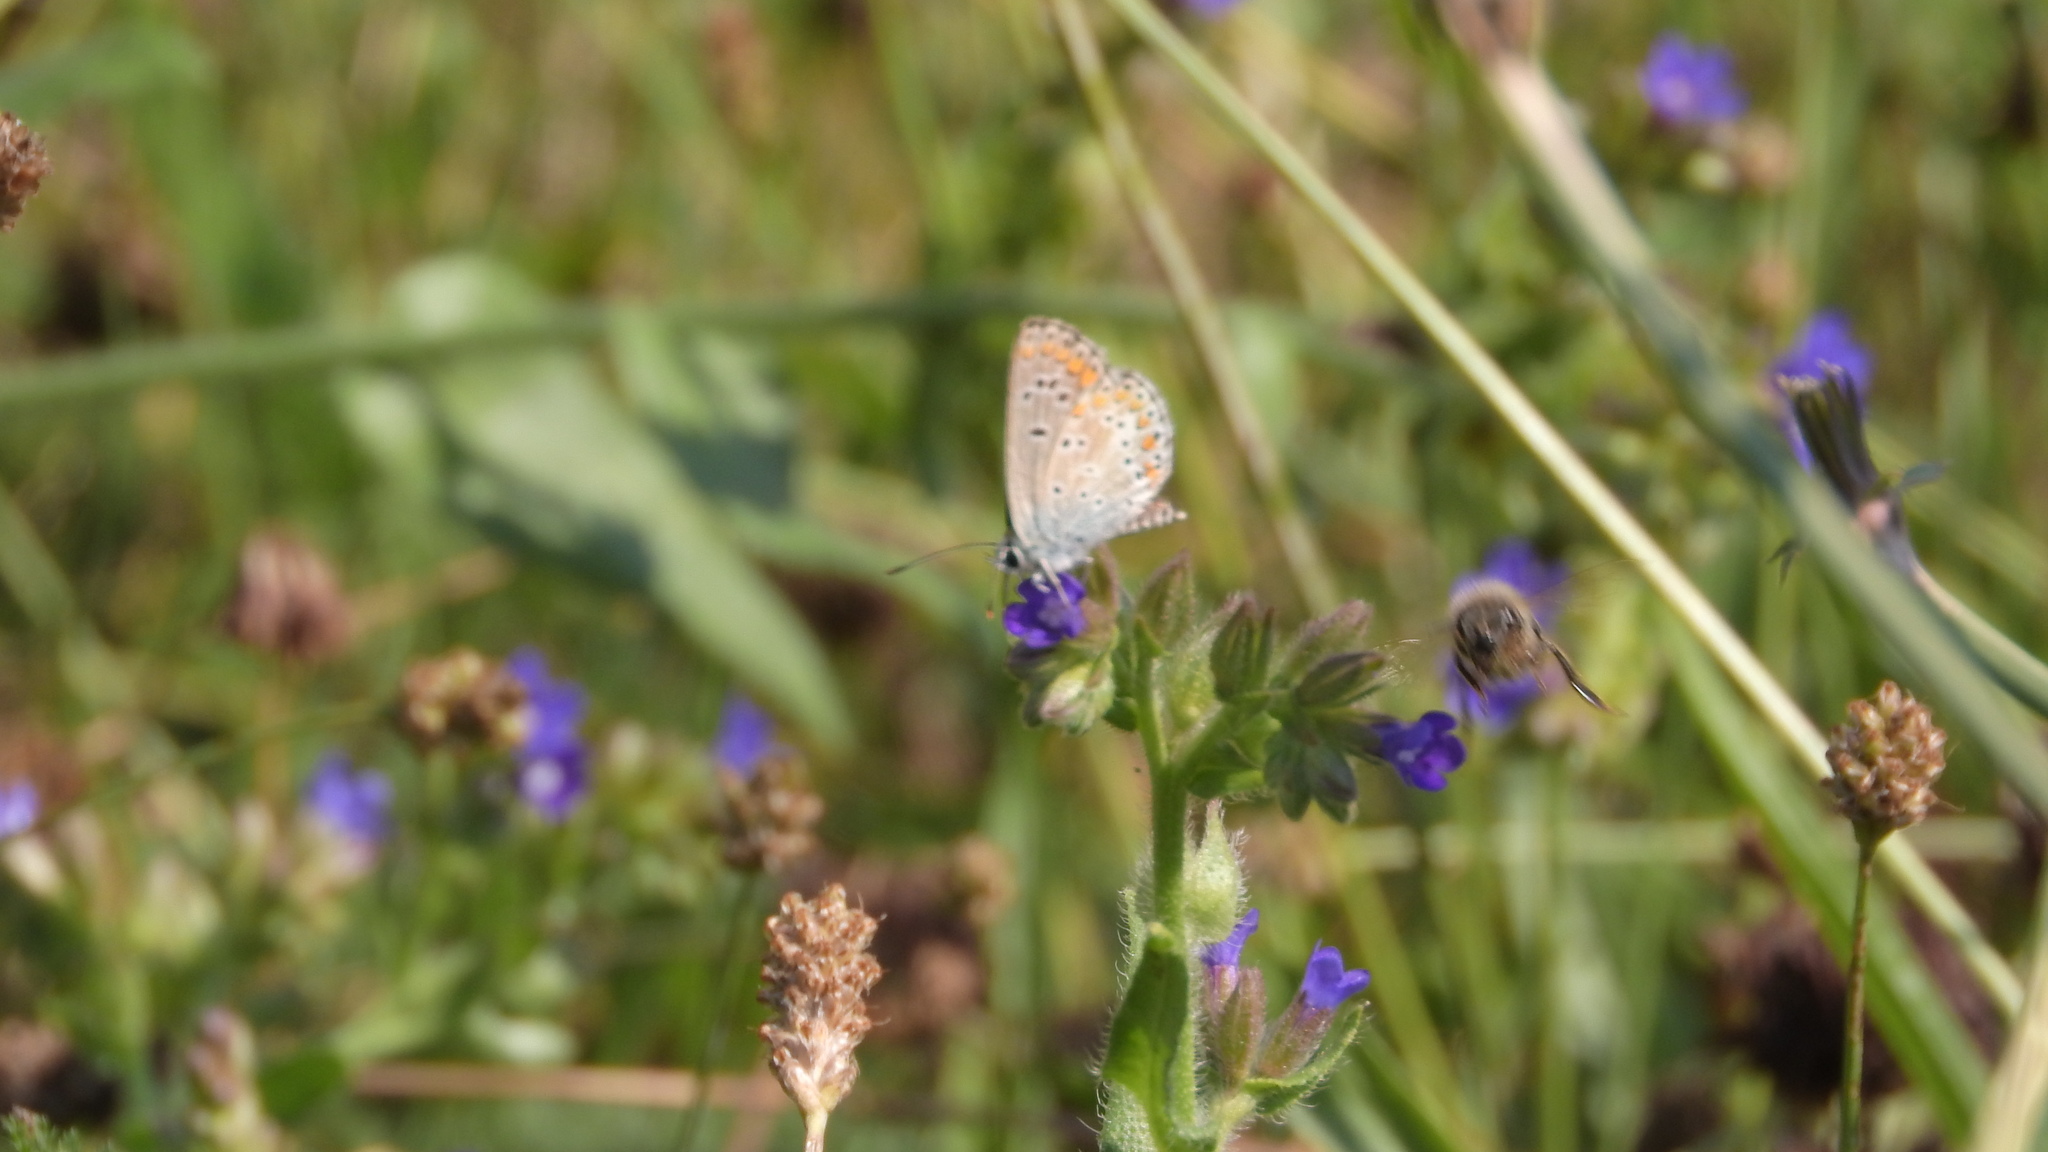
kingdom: Animalia
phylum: Arthropoda
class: Insecta
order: Lepidoptera
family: Lycaenidae
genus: Aricia
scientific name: Aricia agestis
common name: Brown argus
